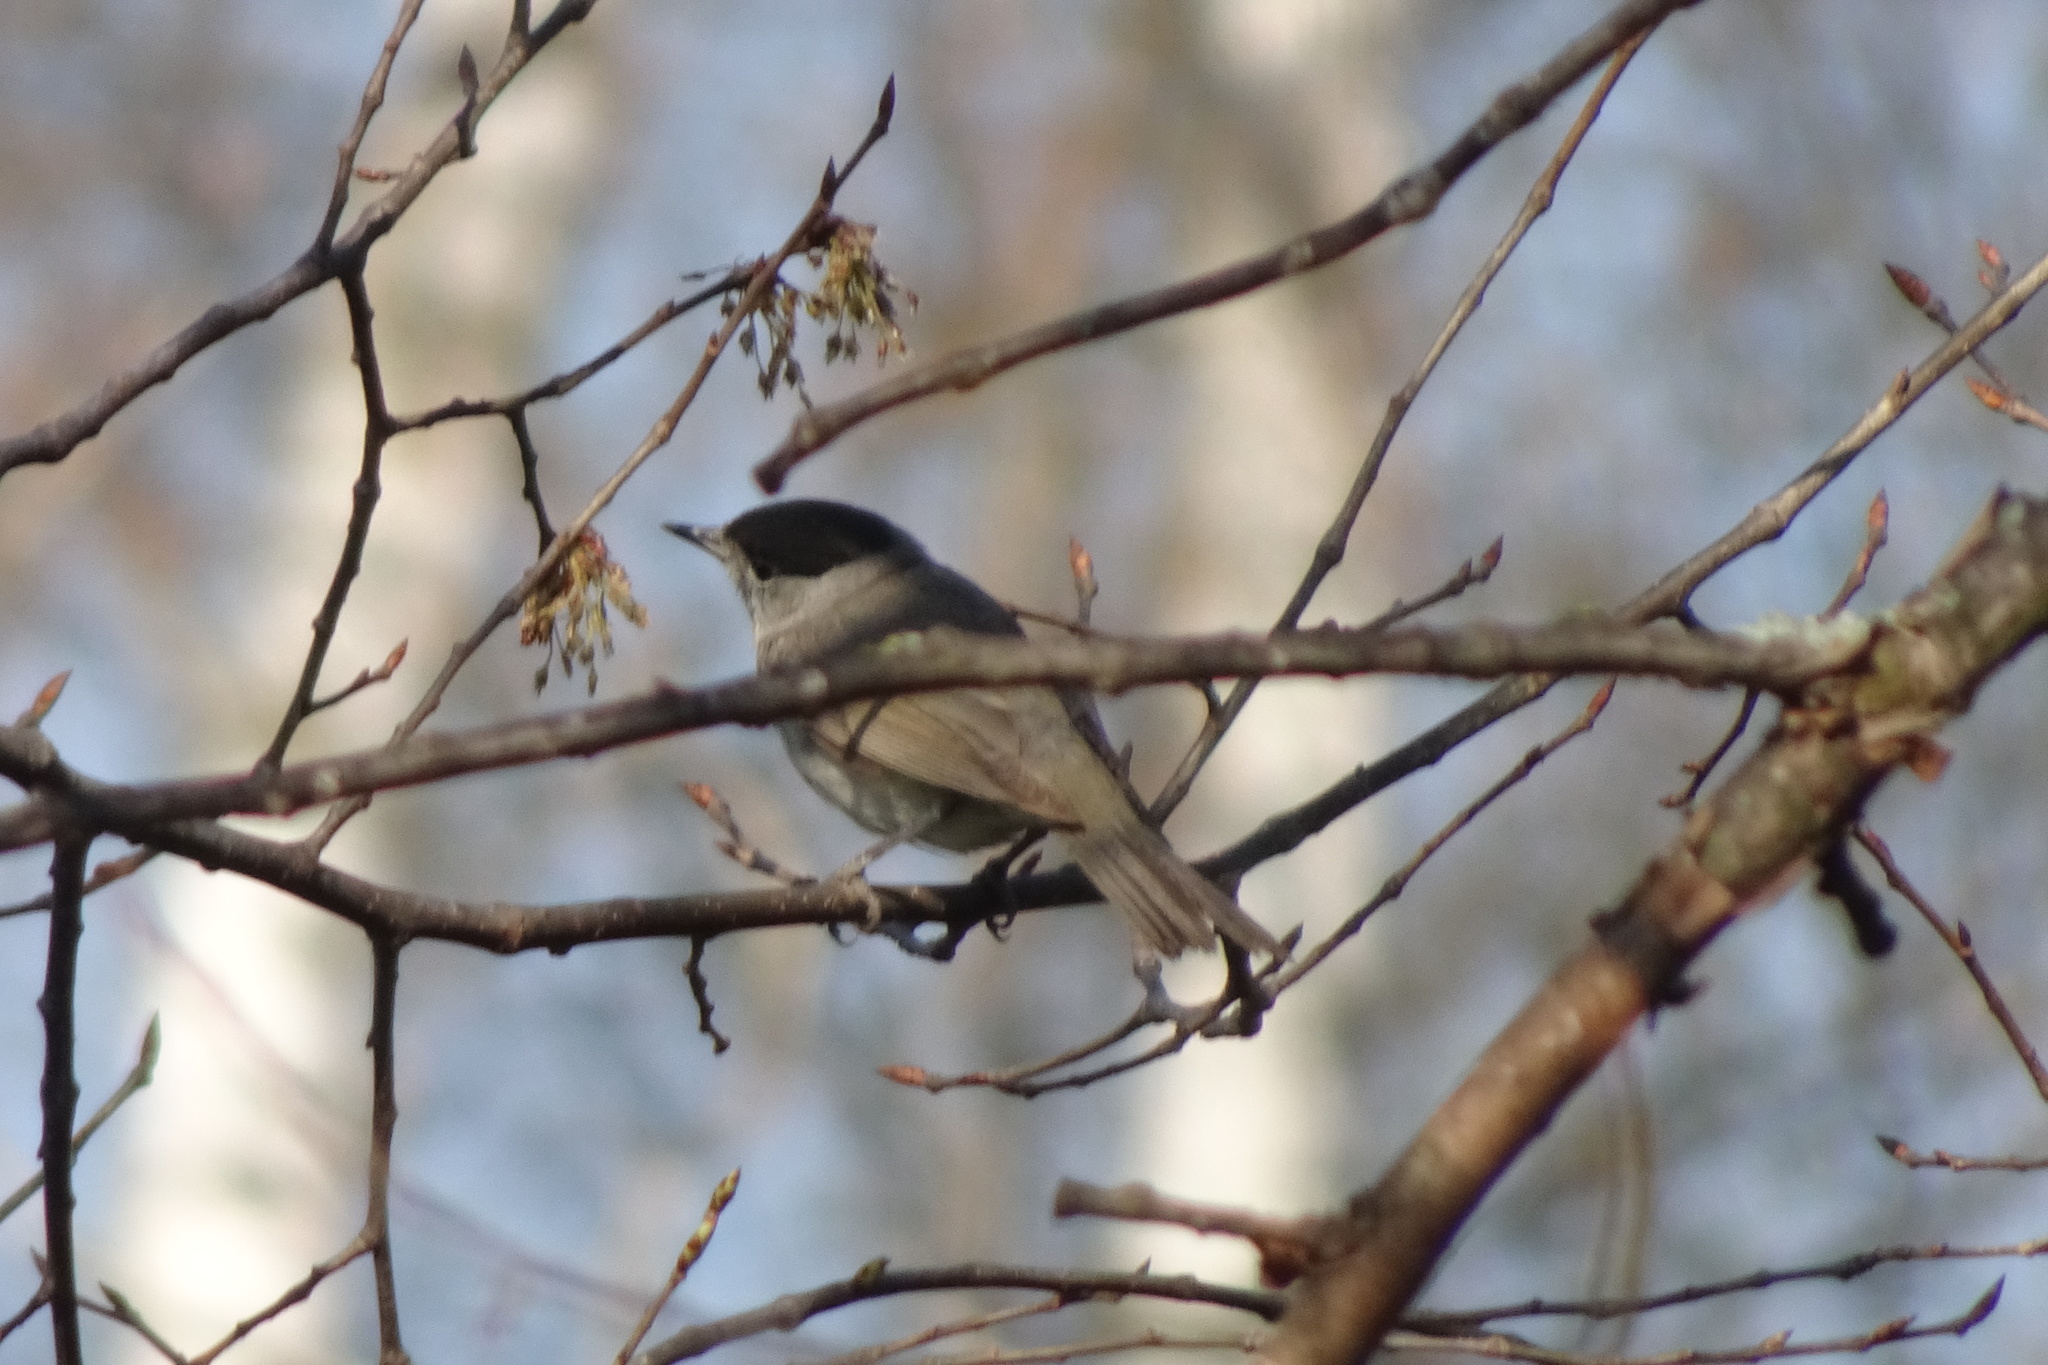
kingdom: Animalia
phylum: Chordata
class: Aves
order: Passeriformes
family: Sylviidae
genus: Sylvia
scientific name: Sylvia atricapilla
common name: Eurasian blackcap
